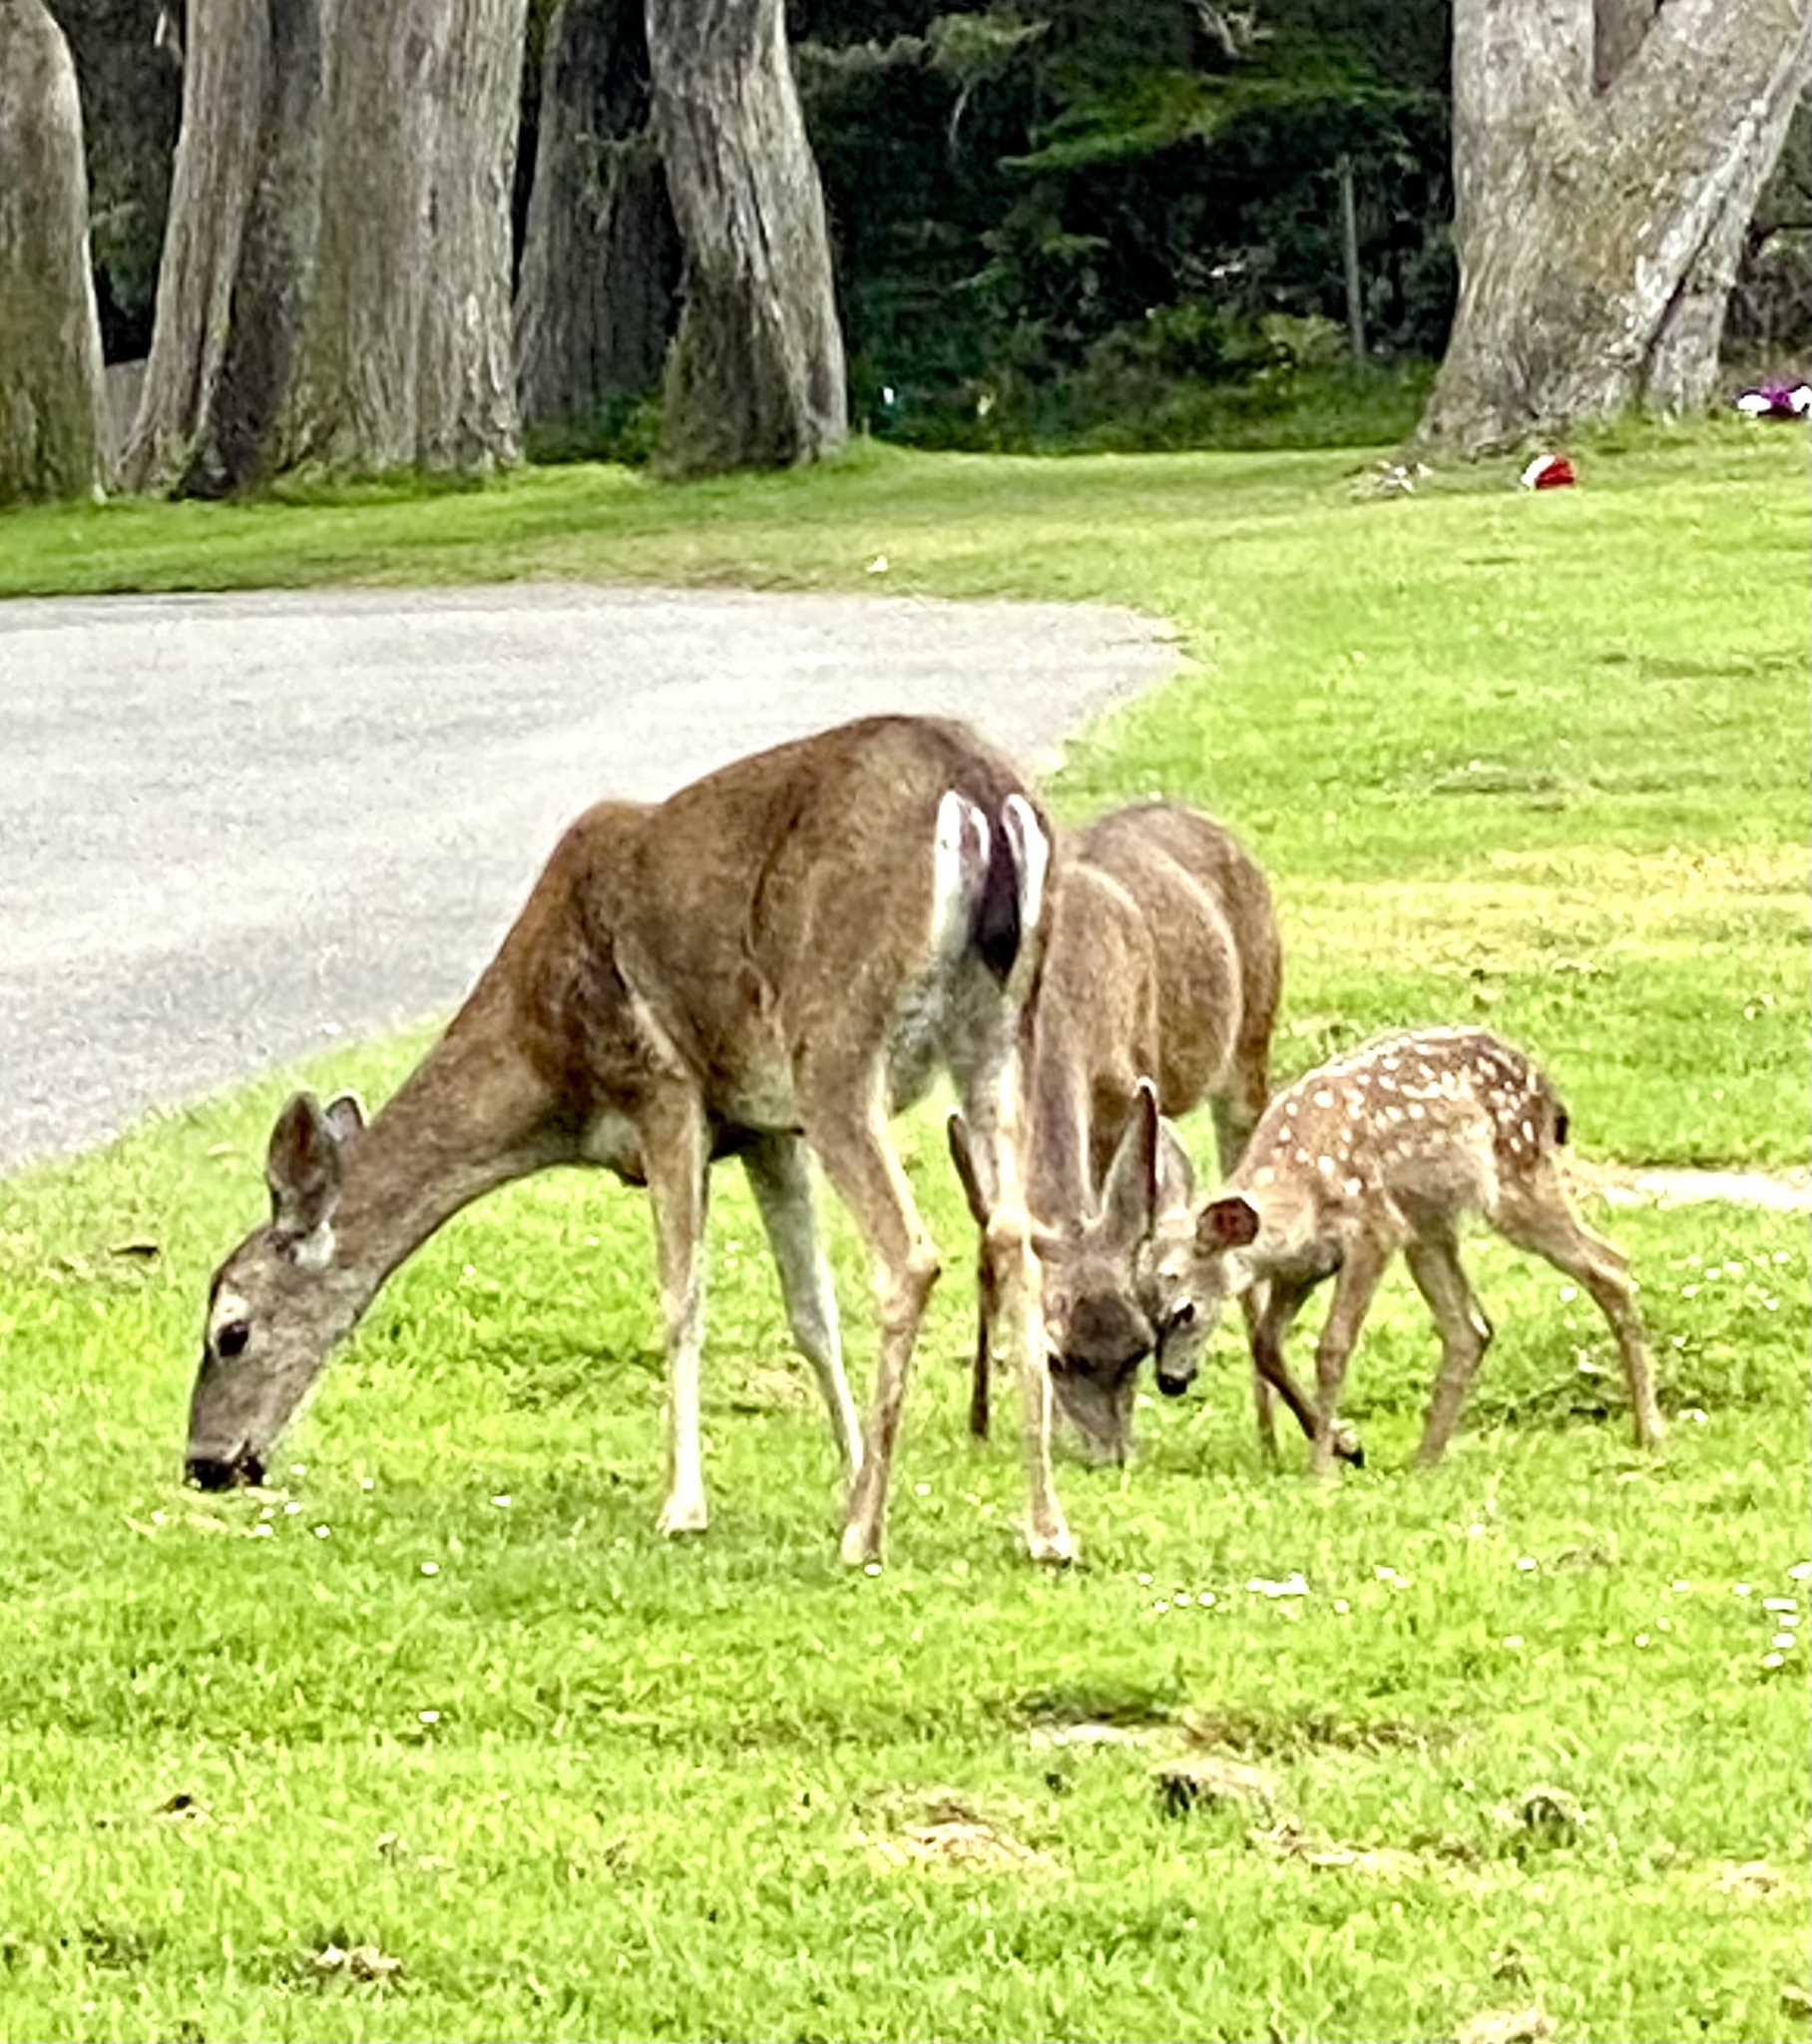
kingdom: Animalia
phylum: Chordata
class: Mammalia
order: Artiodactyla
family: Cervidae
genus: Odocoileus
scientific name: Odocoileus hemionus
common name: Mule deer
